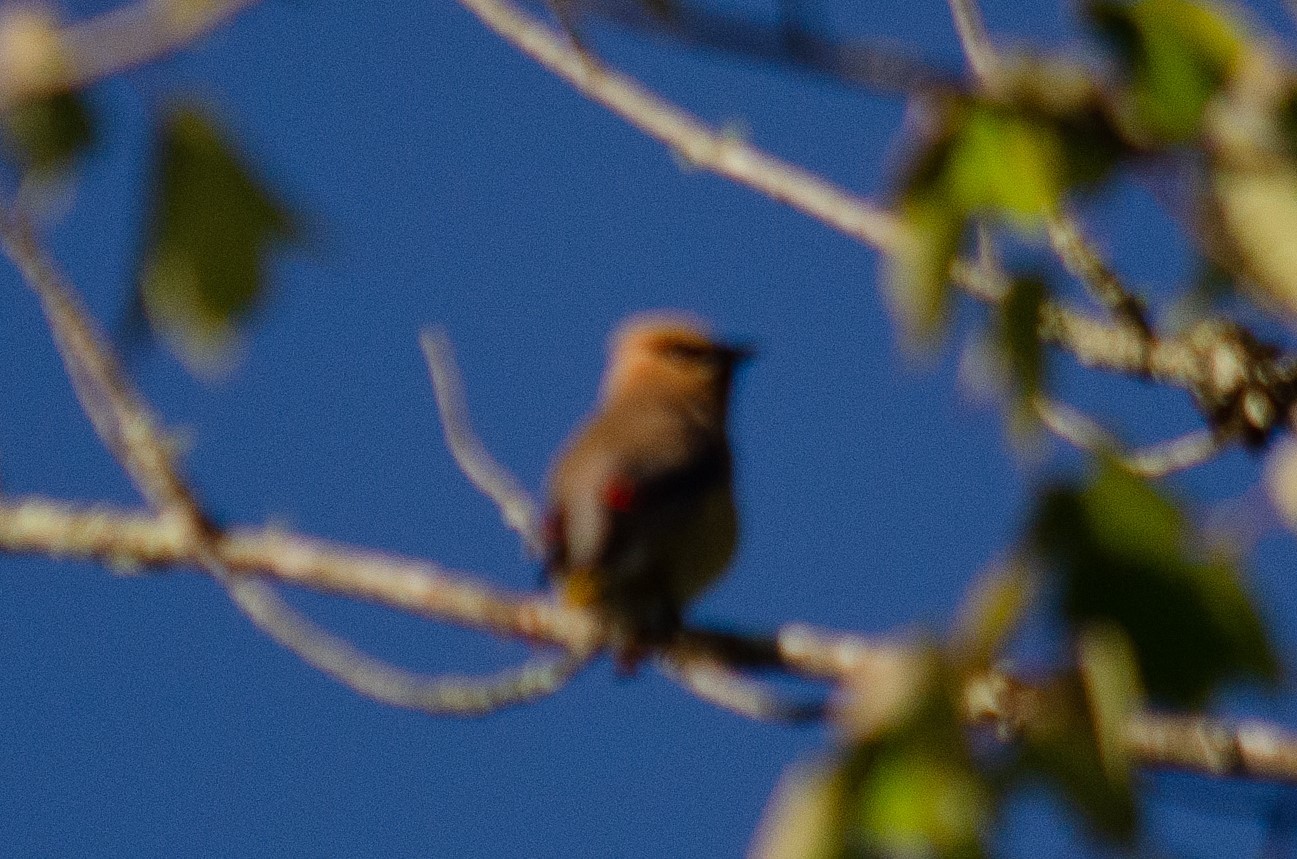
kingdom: Animalia
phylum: Chordata
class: Aves
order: Passeriformes
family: Bombycillidae
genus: Bombycilla
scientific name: Bombycilla cedrorum
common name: Cedar waxwing
